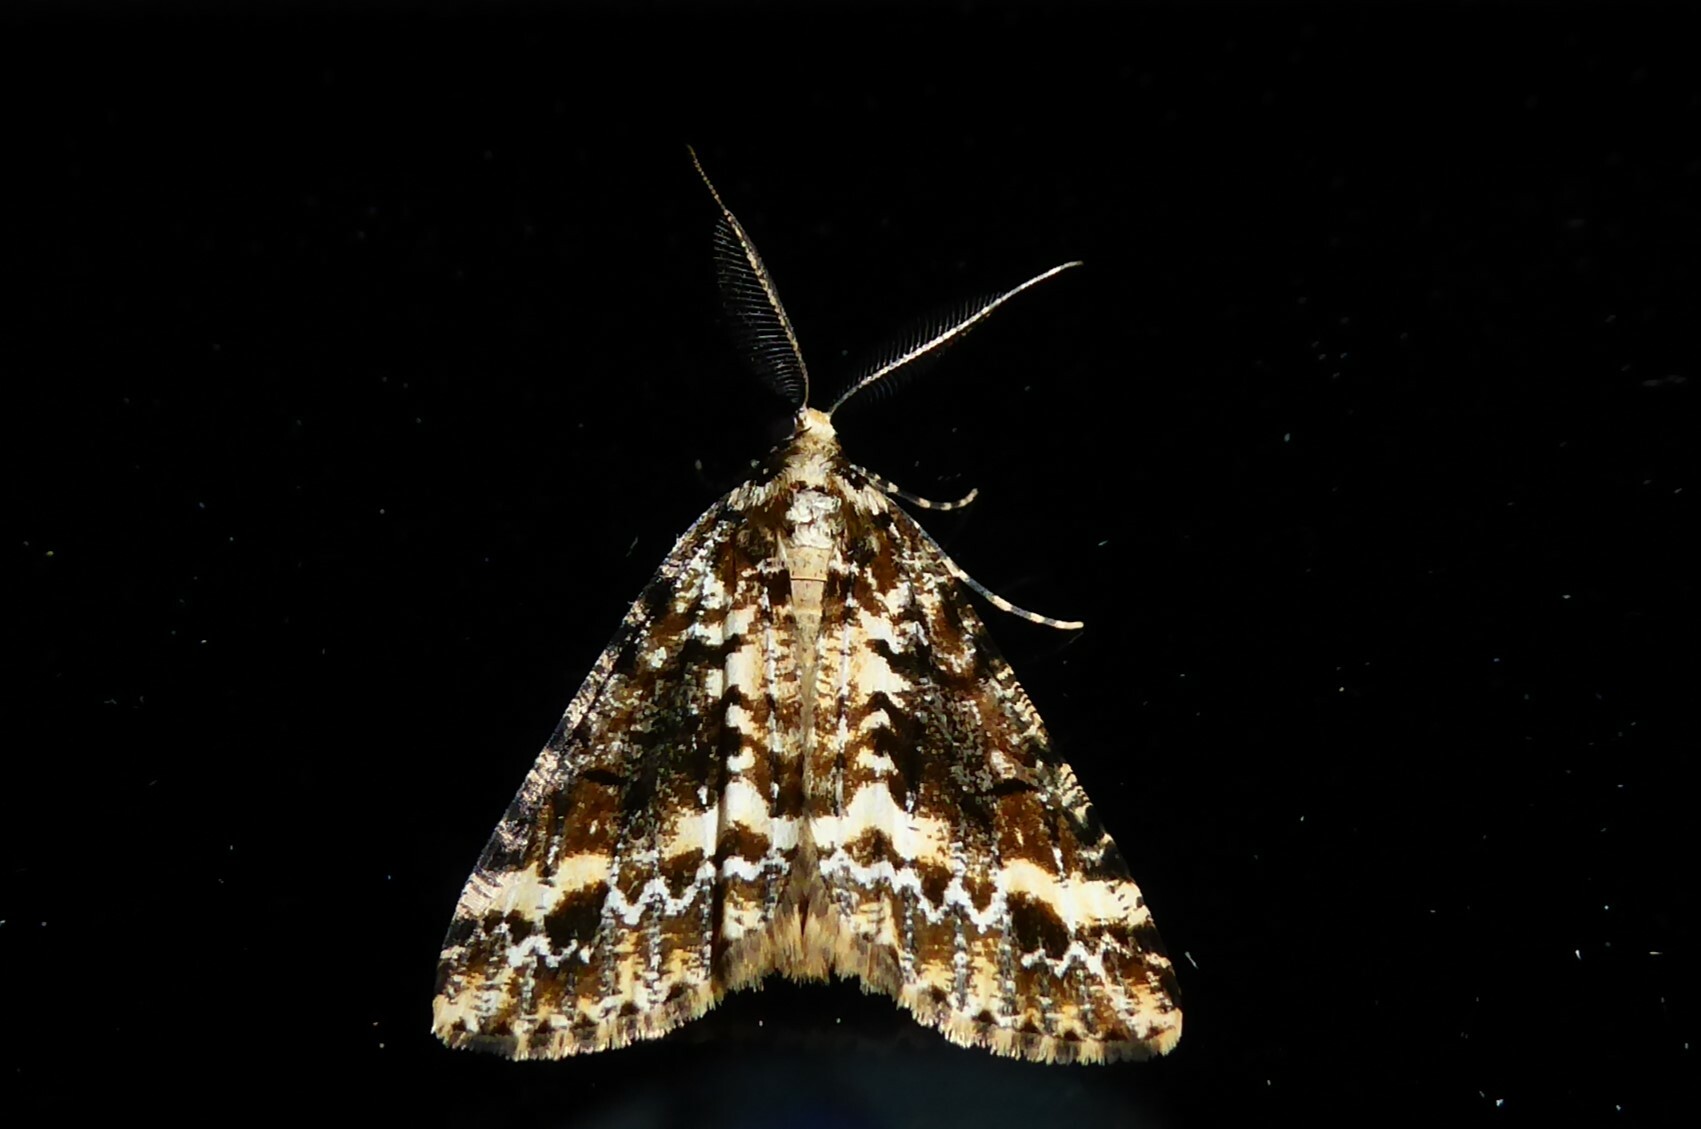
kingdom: Animalia
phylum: Arthropoda
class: Insecta
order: Lepidoptera
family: Geometridae
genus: Pseudocoremia
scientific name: Pseudocoremia leucelaea
